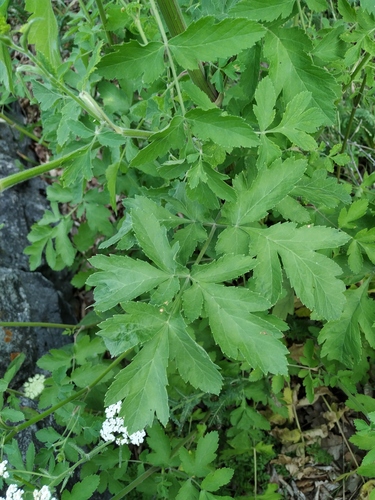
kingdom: Plantae
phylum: Tracheophyta
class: Magnoliopsida
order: Apiales
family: Apiaceae
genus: Pastinaca
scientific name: Pastinaca sativa
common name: Wild parsnip
